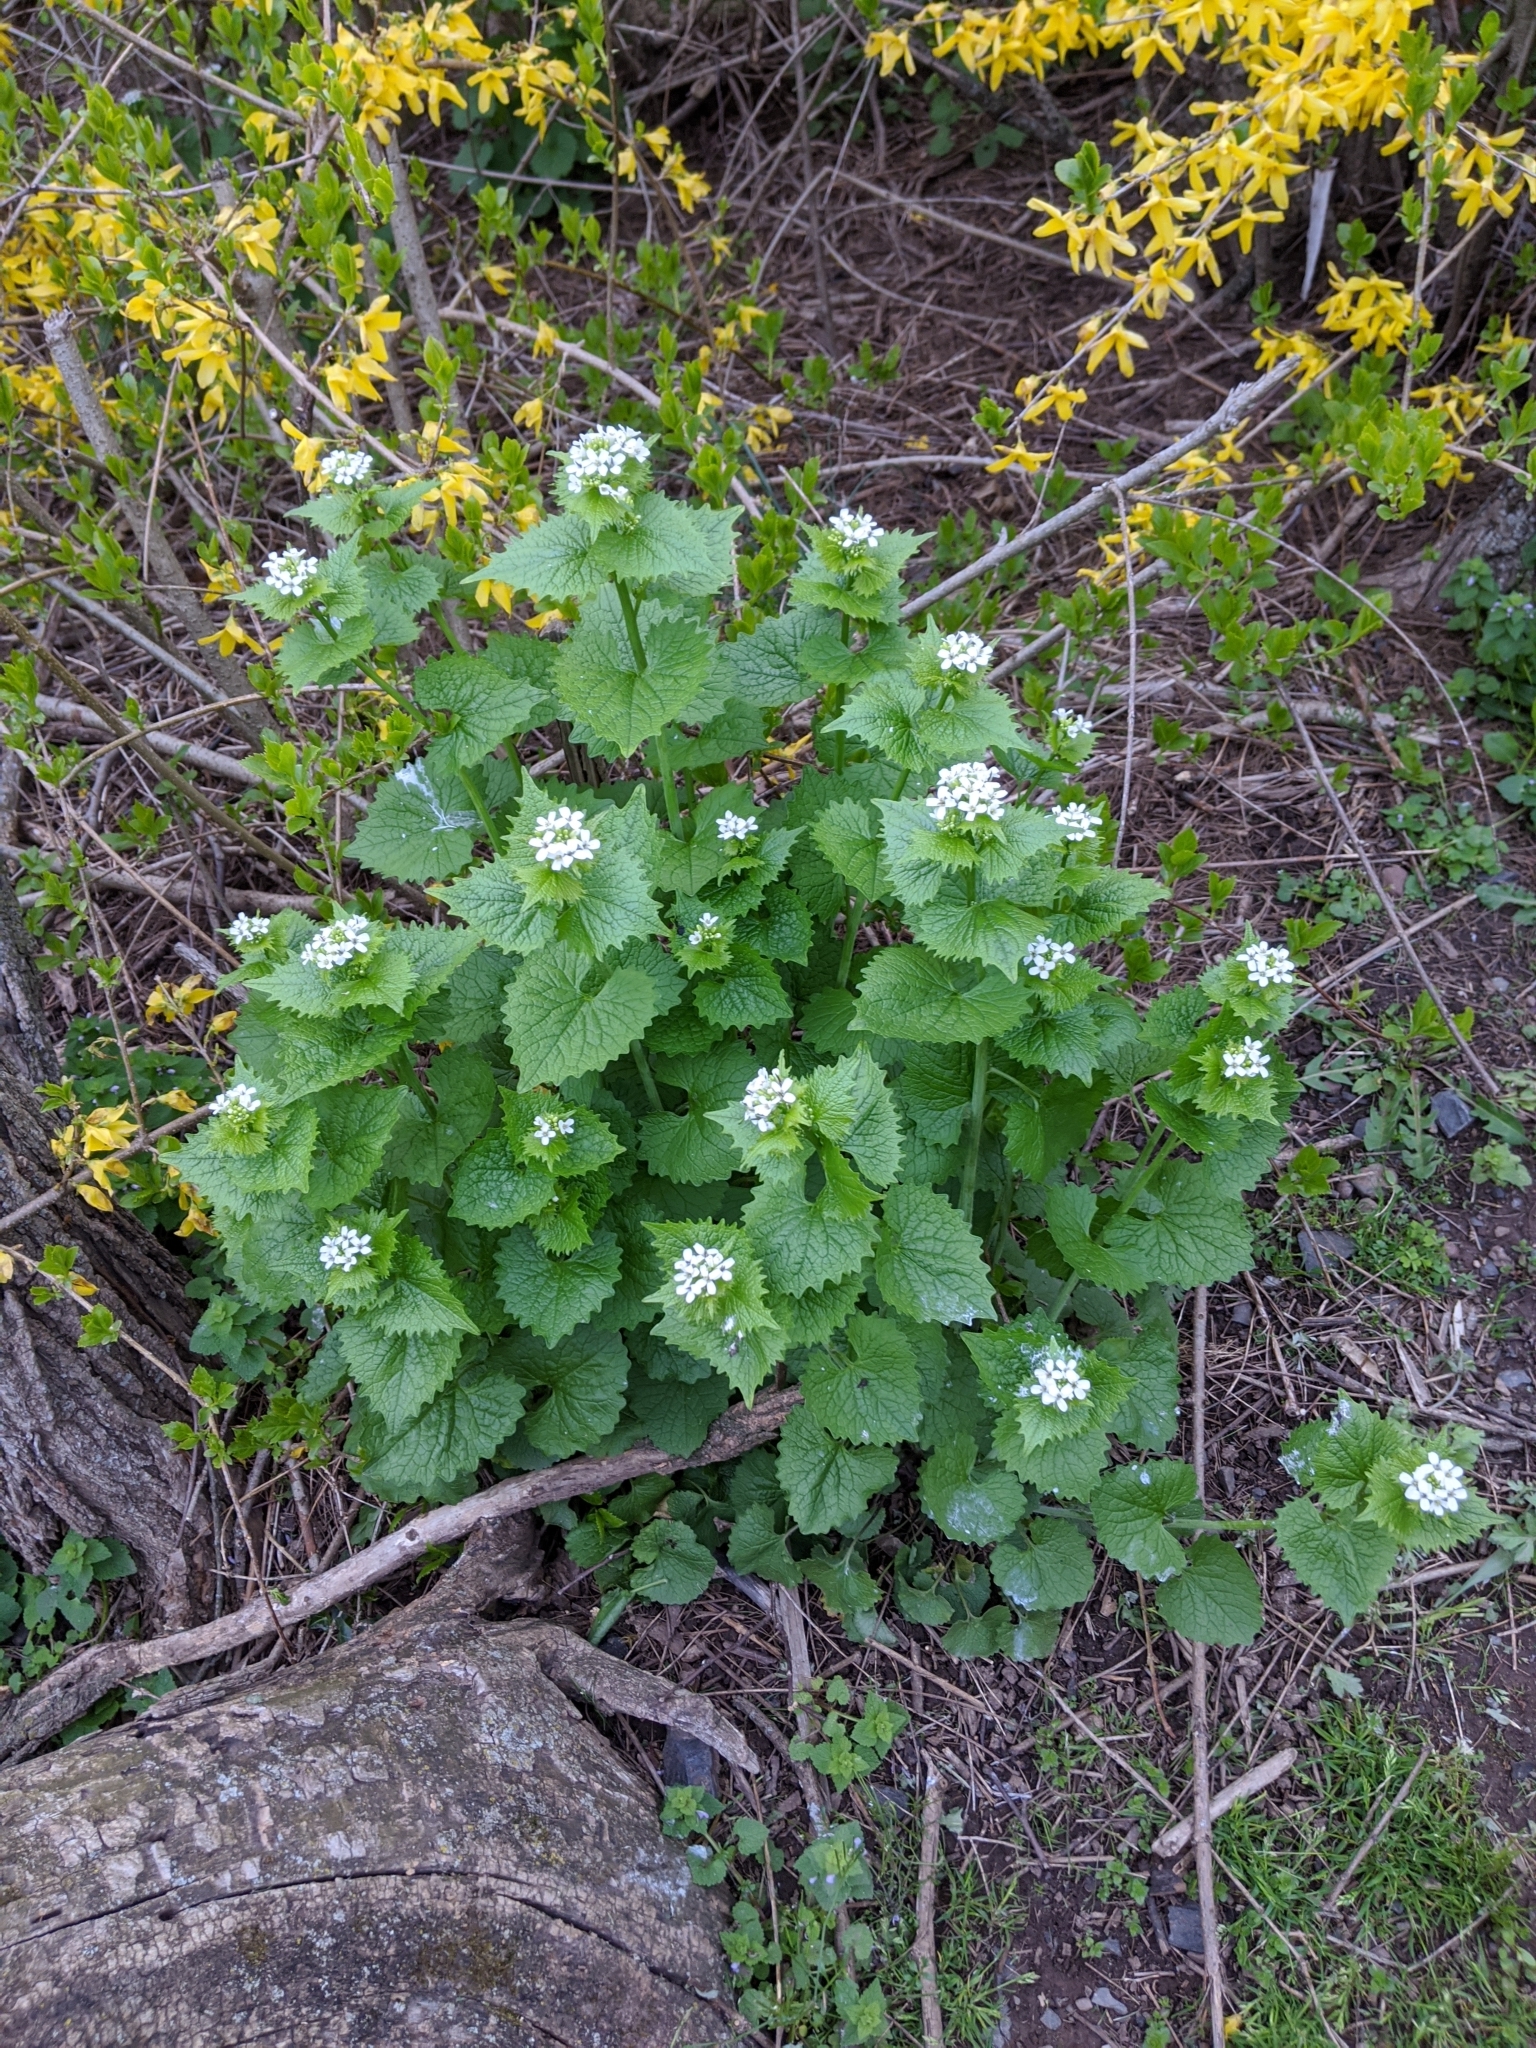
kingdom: Plantae
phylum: Tracheophyta
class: Magnoliopsida
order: Brassicales
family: Brassicaceae
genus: Alliaria
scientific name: Alliaria petiolata
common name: Garlic mustard
